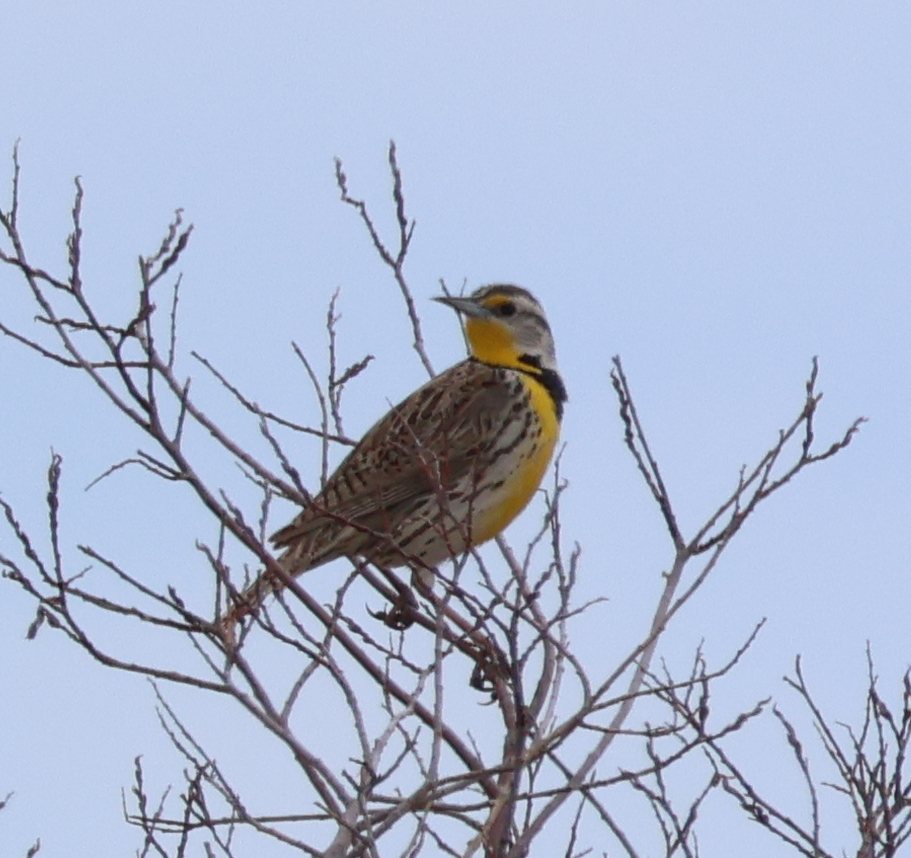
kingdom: Animalia
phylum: Chordata
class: Aves
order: Passeriformes
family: Icteridae
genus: Sturnella
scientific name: Sturnella neglecta
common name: Western meadowlark
